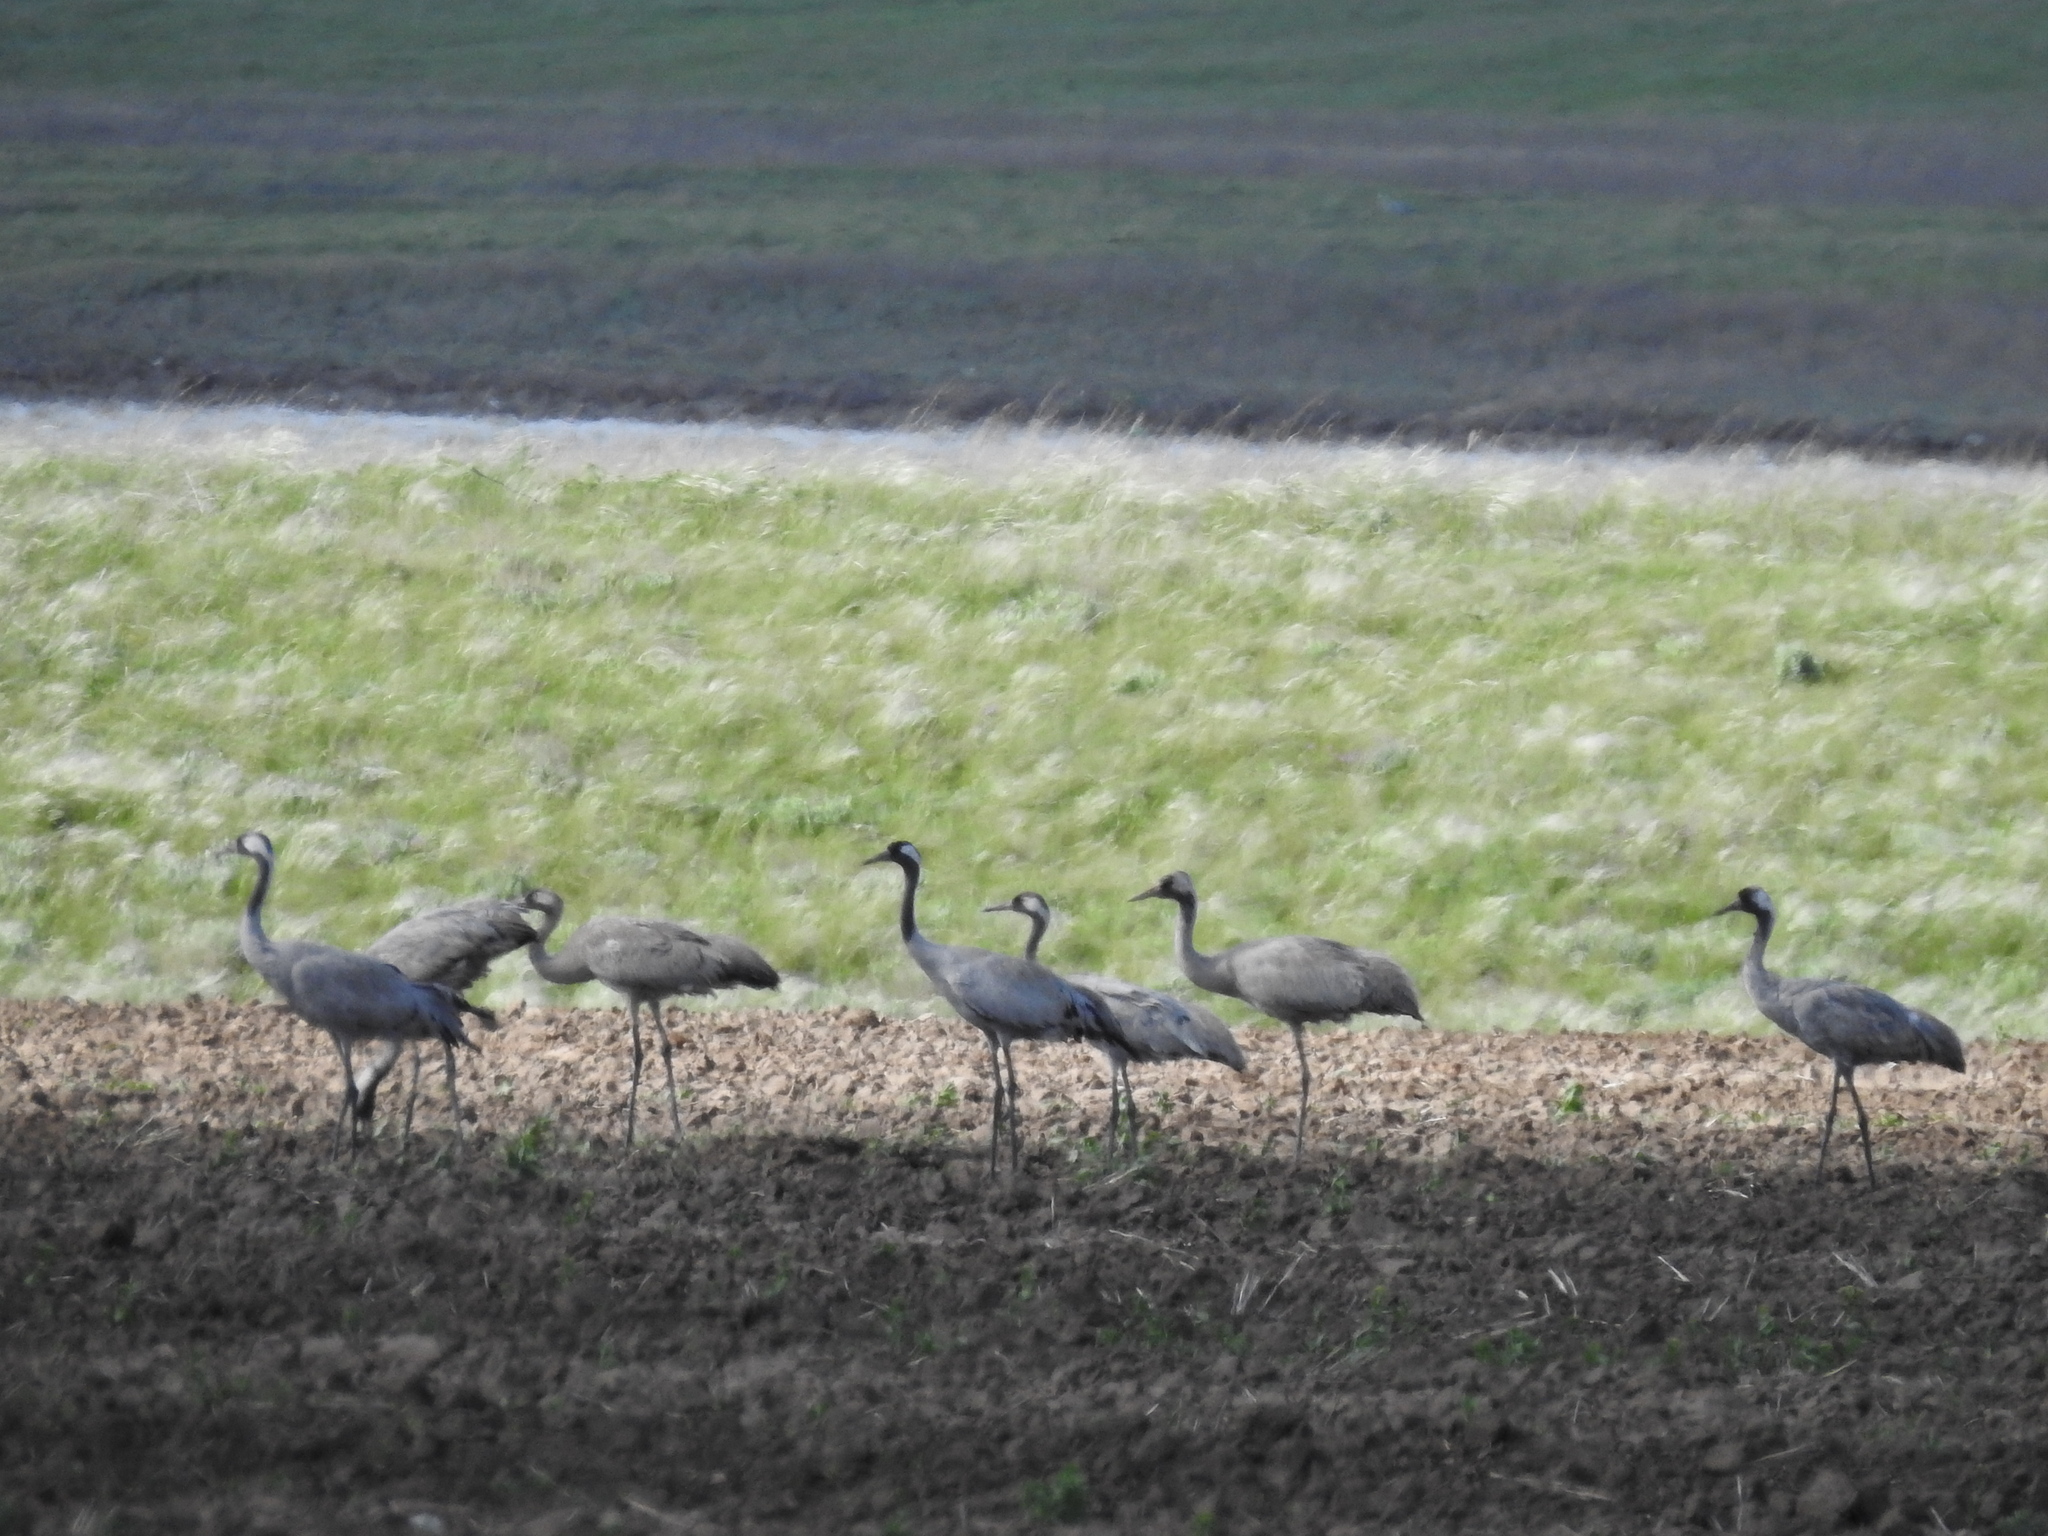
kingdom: Animalia
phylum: Chordata
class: Aves
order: Gruiformes
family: Gruidae
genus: Grus
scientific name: Grus grus
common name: Common crane
